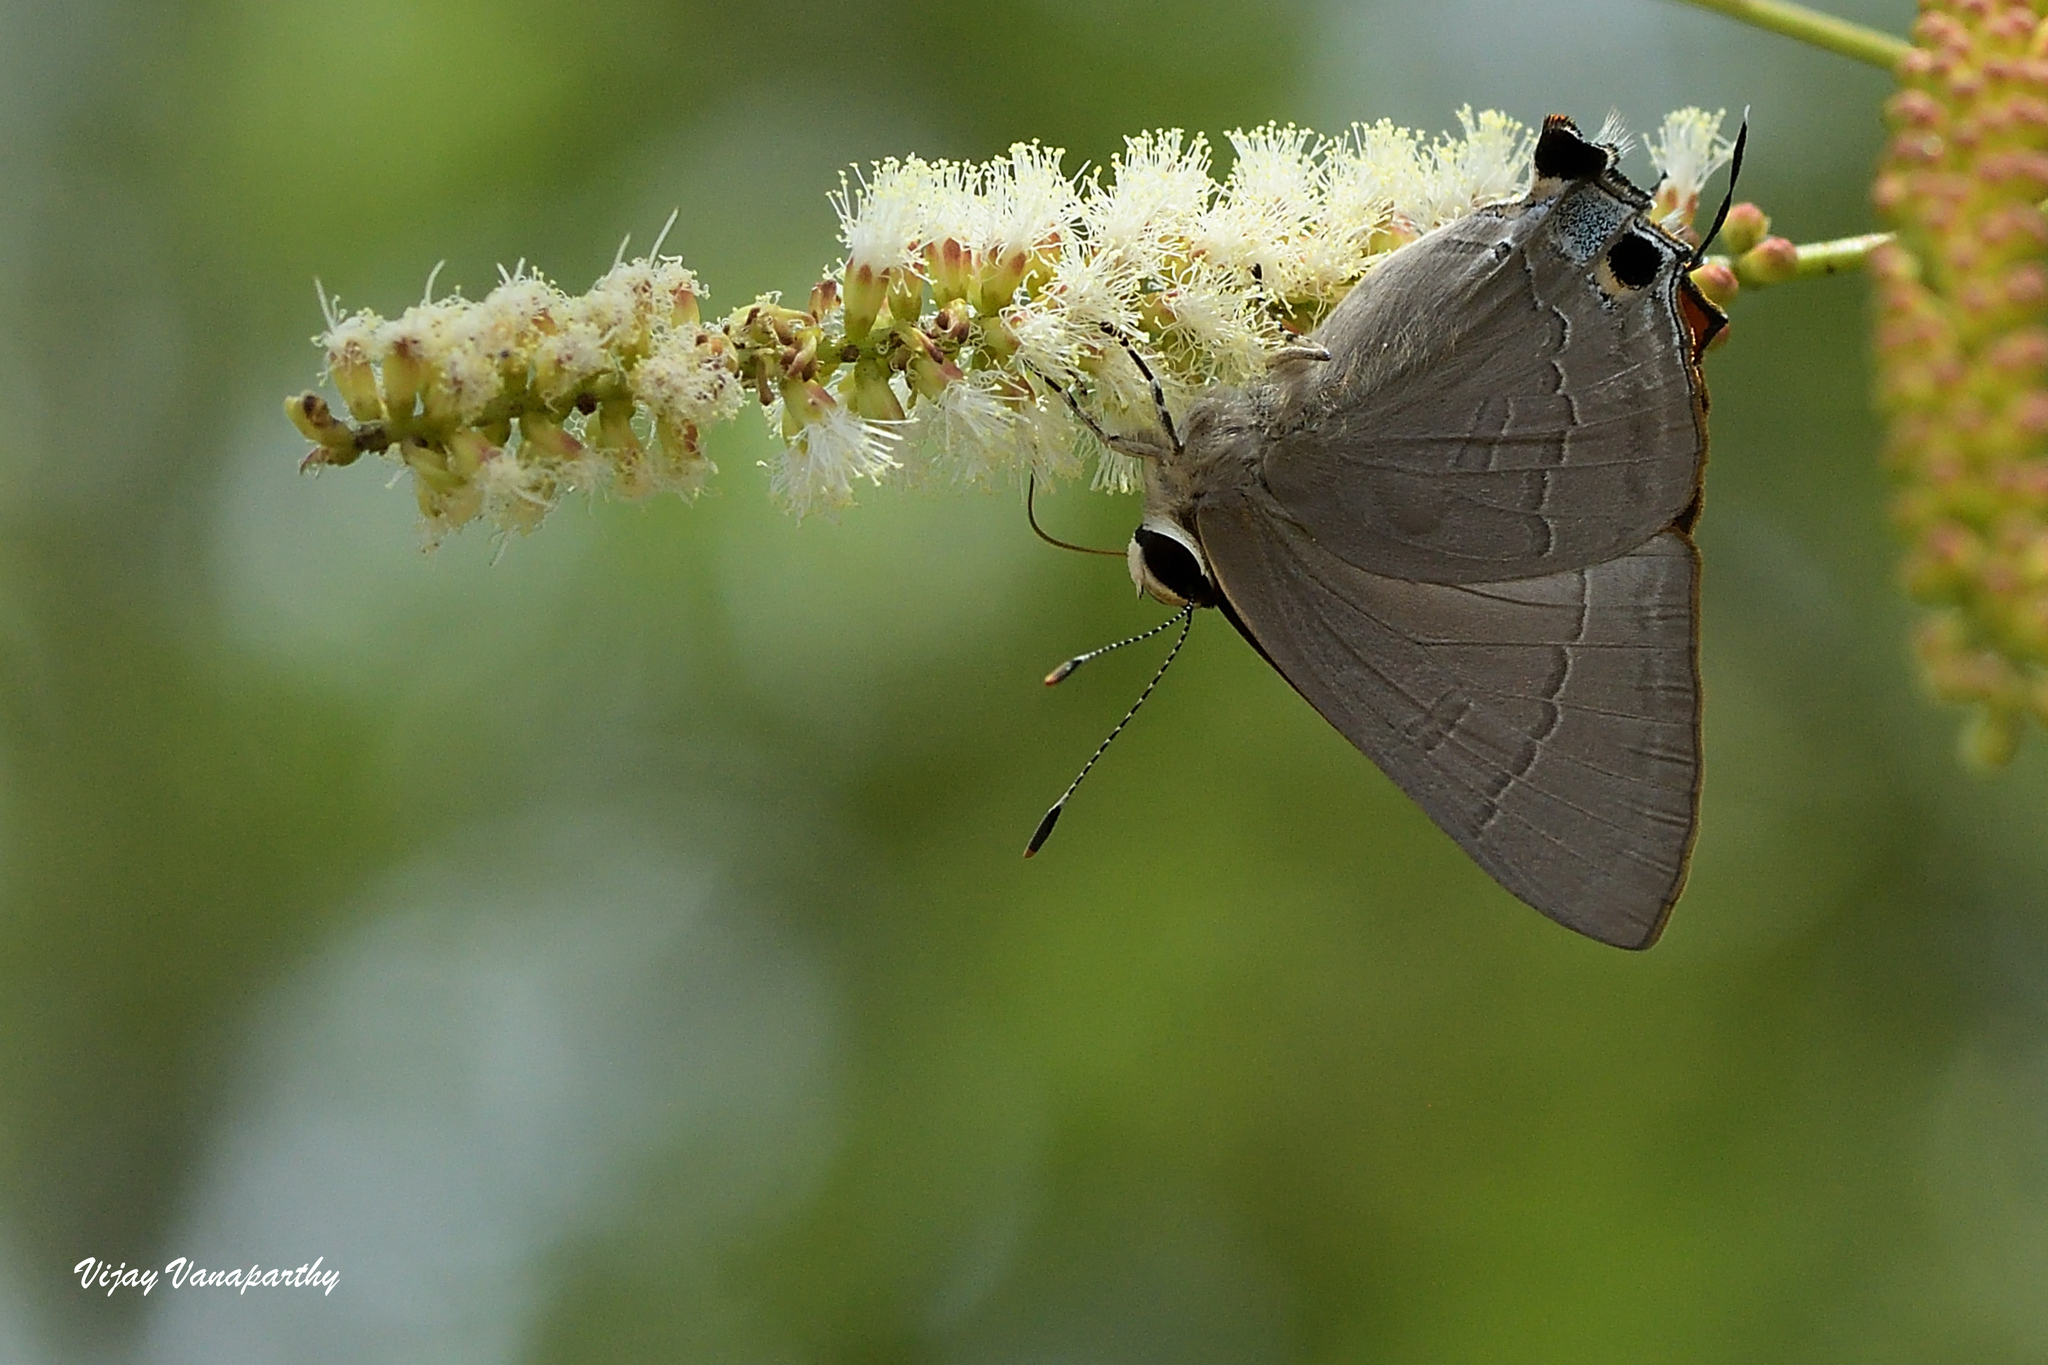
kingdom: Animalia
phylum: Arthropoda
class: Insecta
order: Lepidoptera
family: Lycaenidae
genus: Rapala
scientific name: Rapala iarbus
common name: Common red flash
